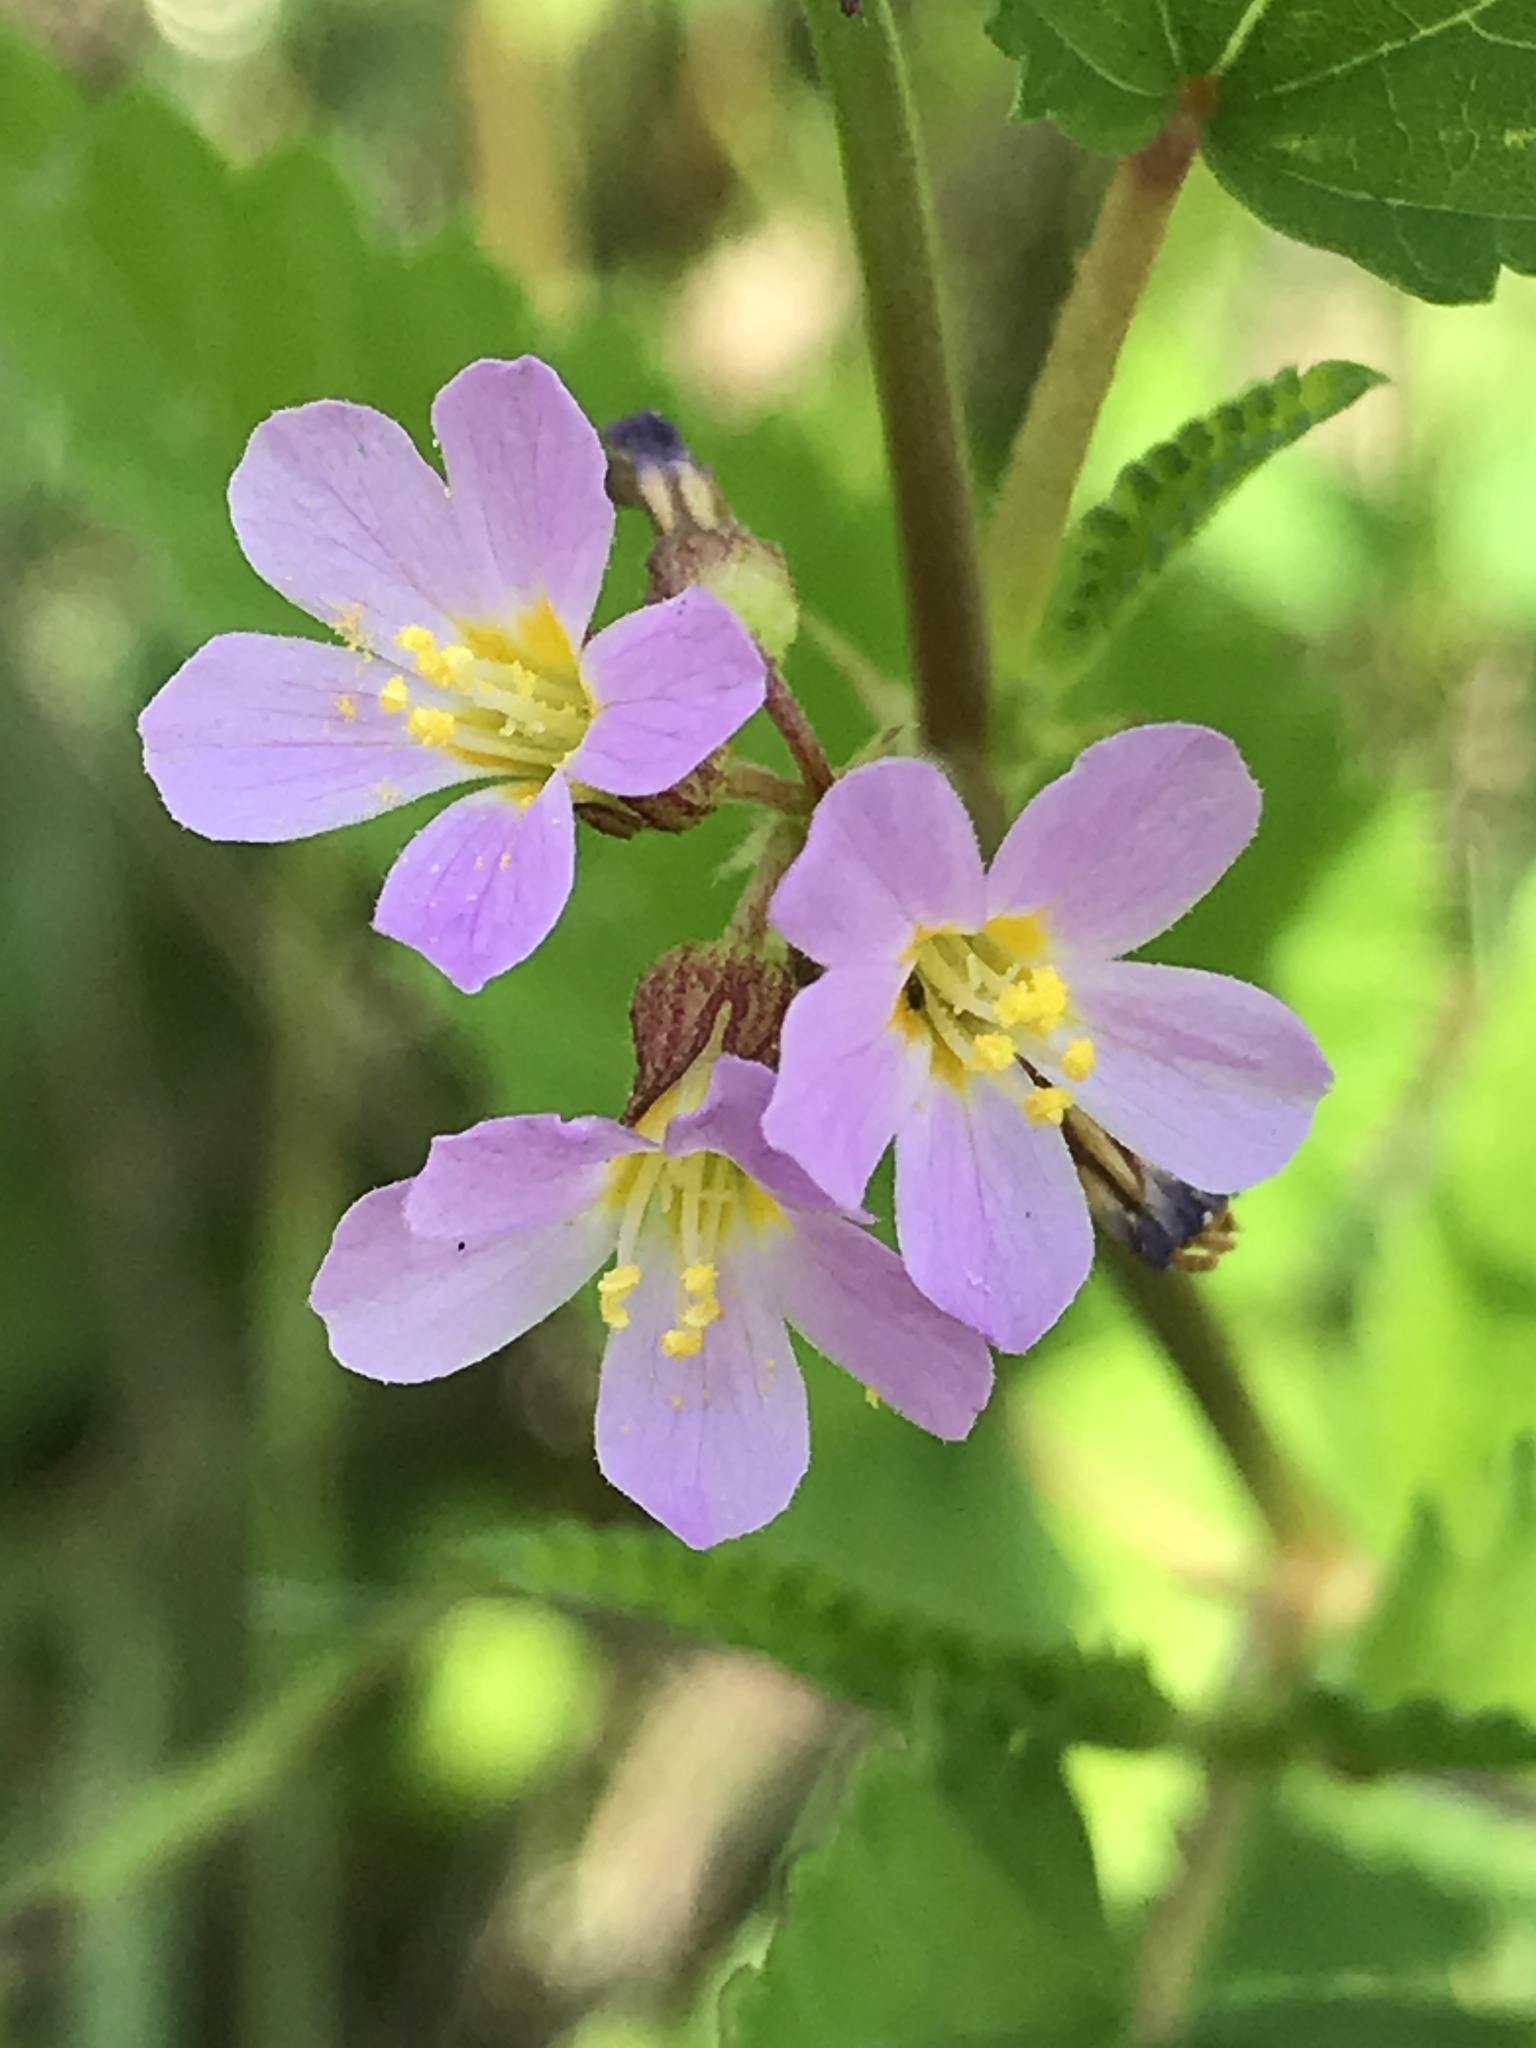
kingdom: Plantae
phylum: Tracheophyta
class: Magnoliopsida
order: Malvales
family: Malvaceae
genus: Melochia
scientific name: Melochia pyramidata
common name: Pyramidflower
